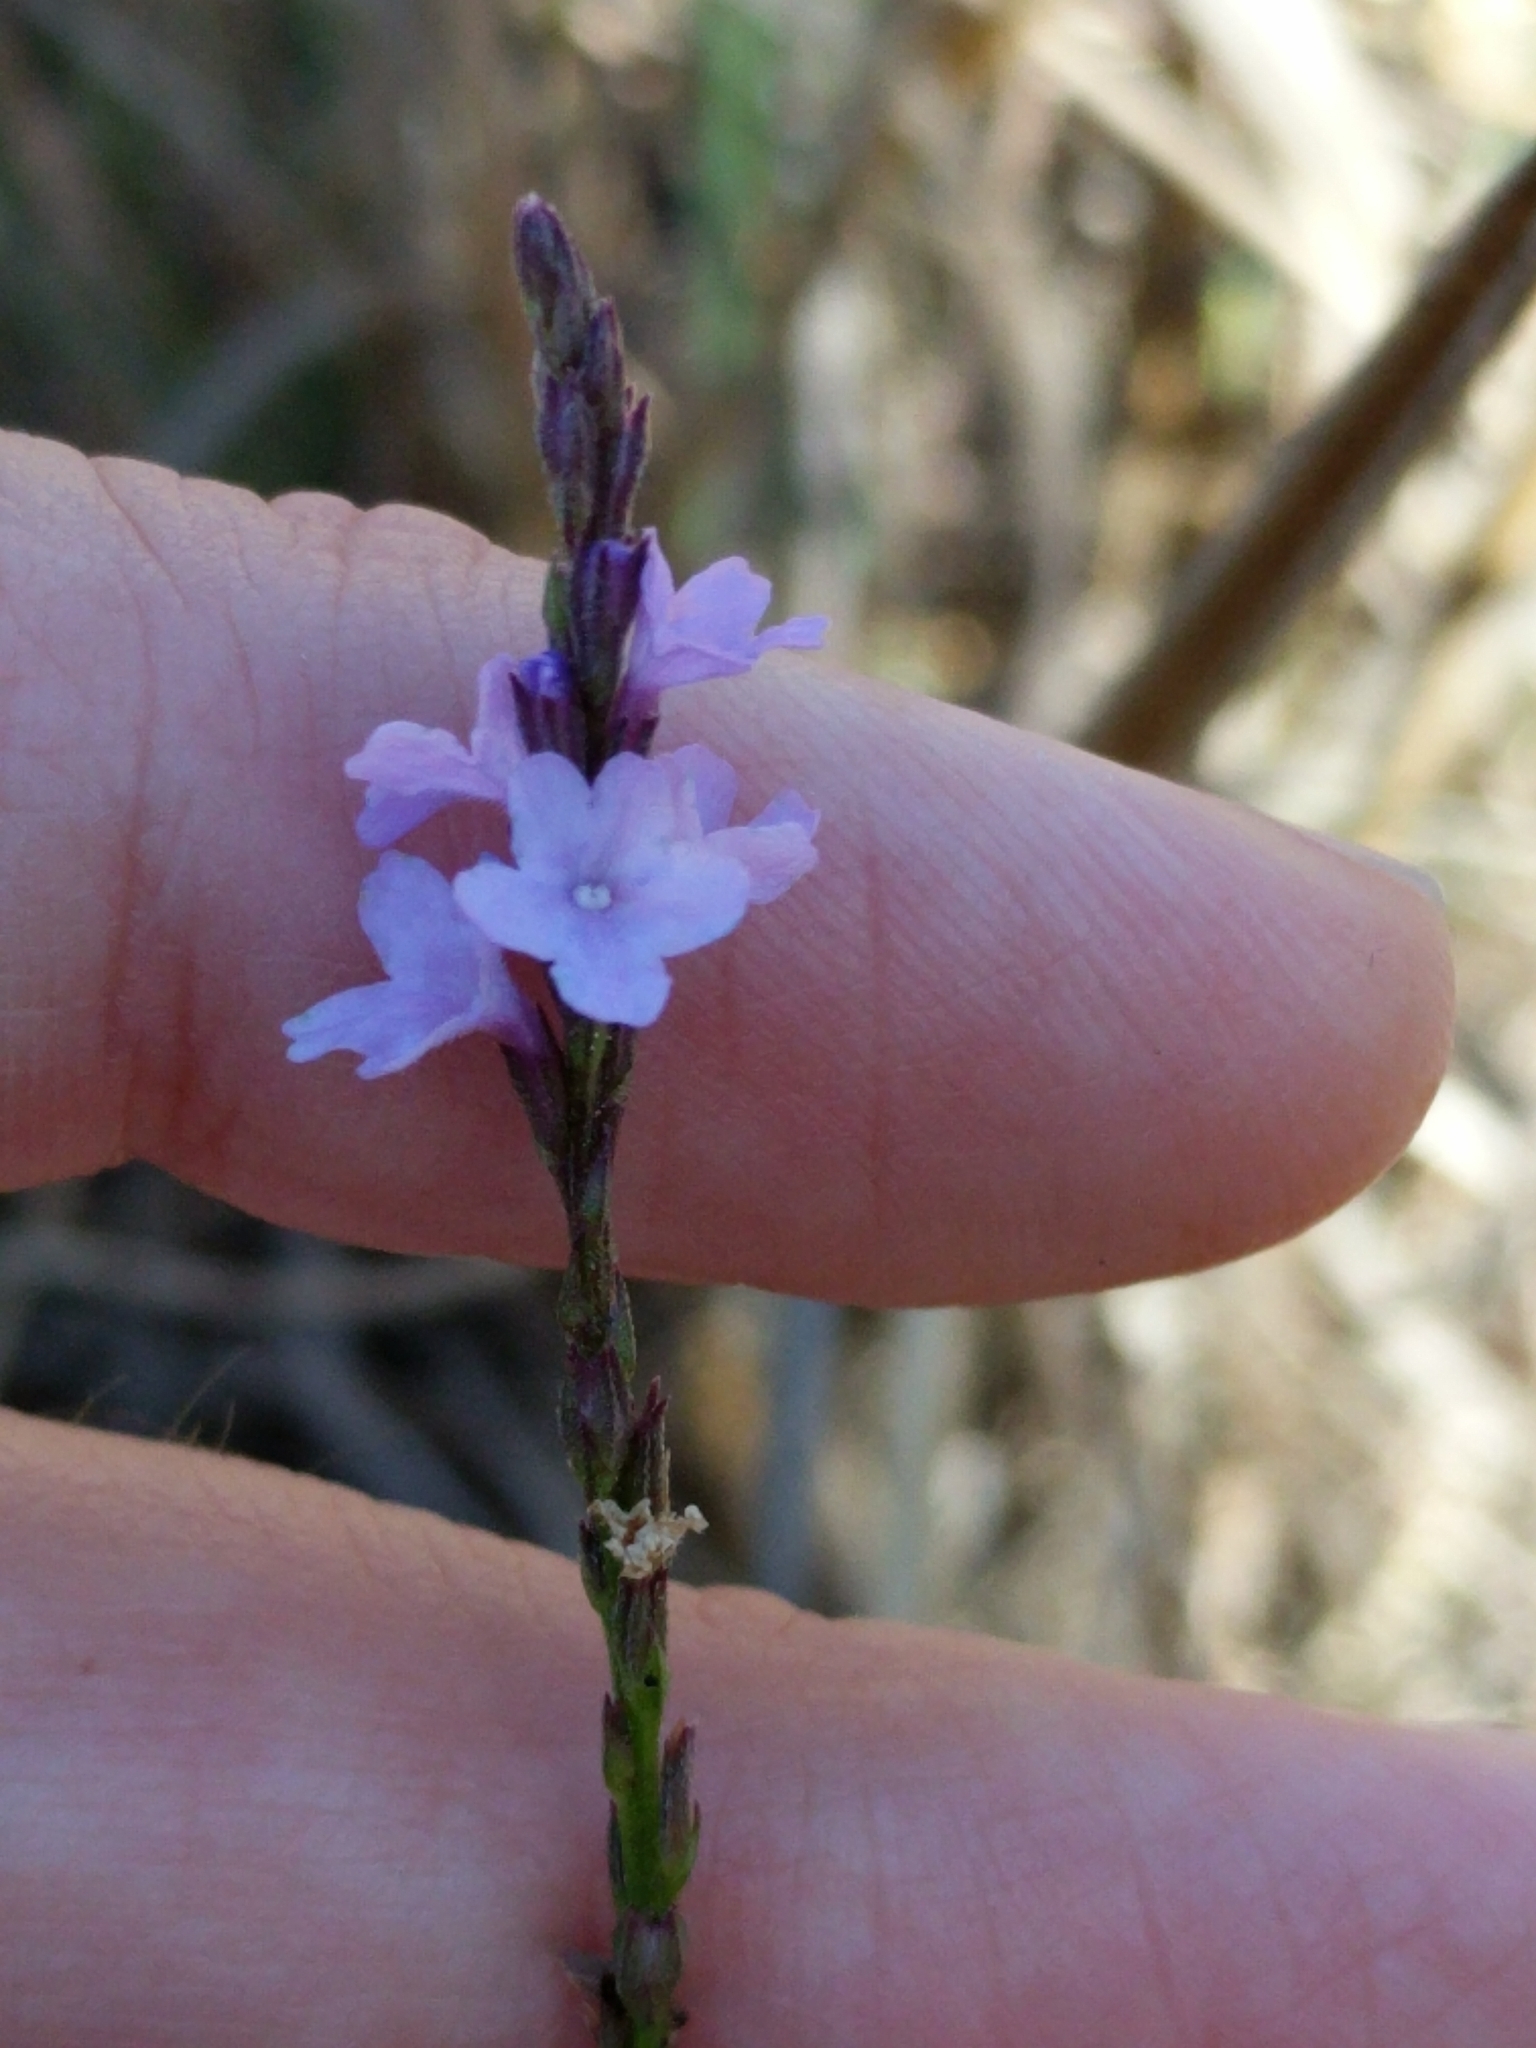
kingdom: Plantae
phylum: Tracheophyta
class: Magnoliopsida
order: Lamiales
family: Verbenaceae
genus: Verbena
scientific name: Verbena halei
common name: Texas vervain
